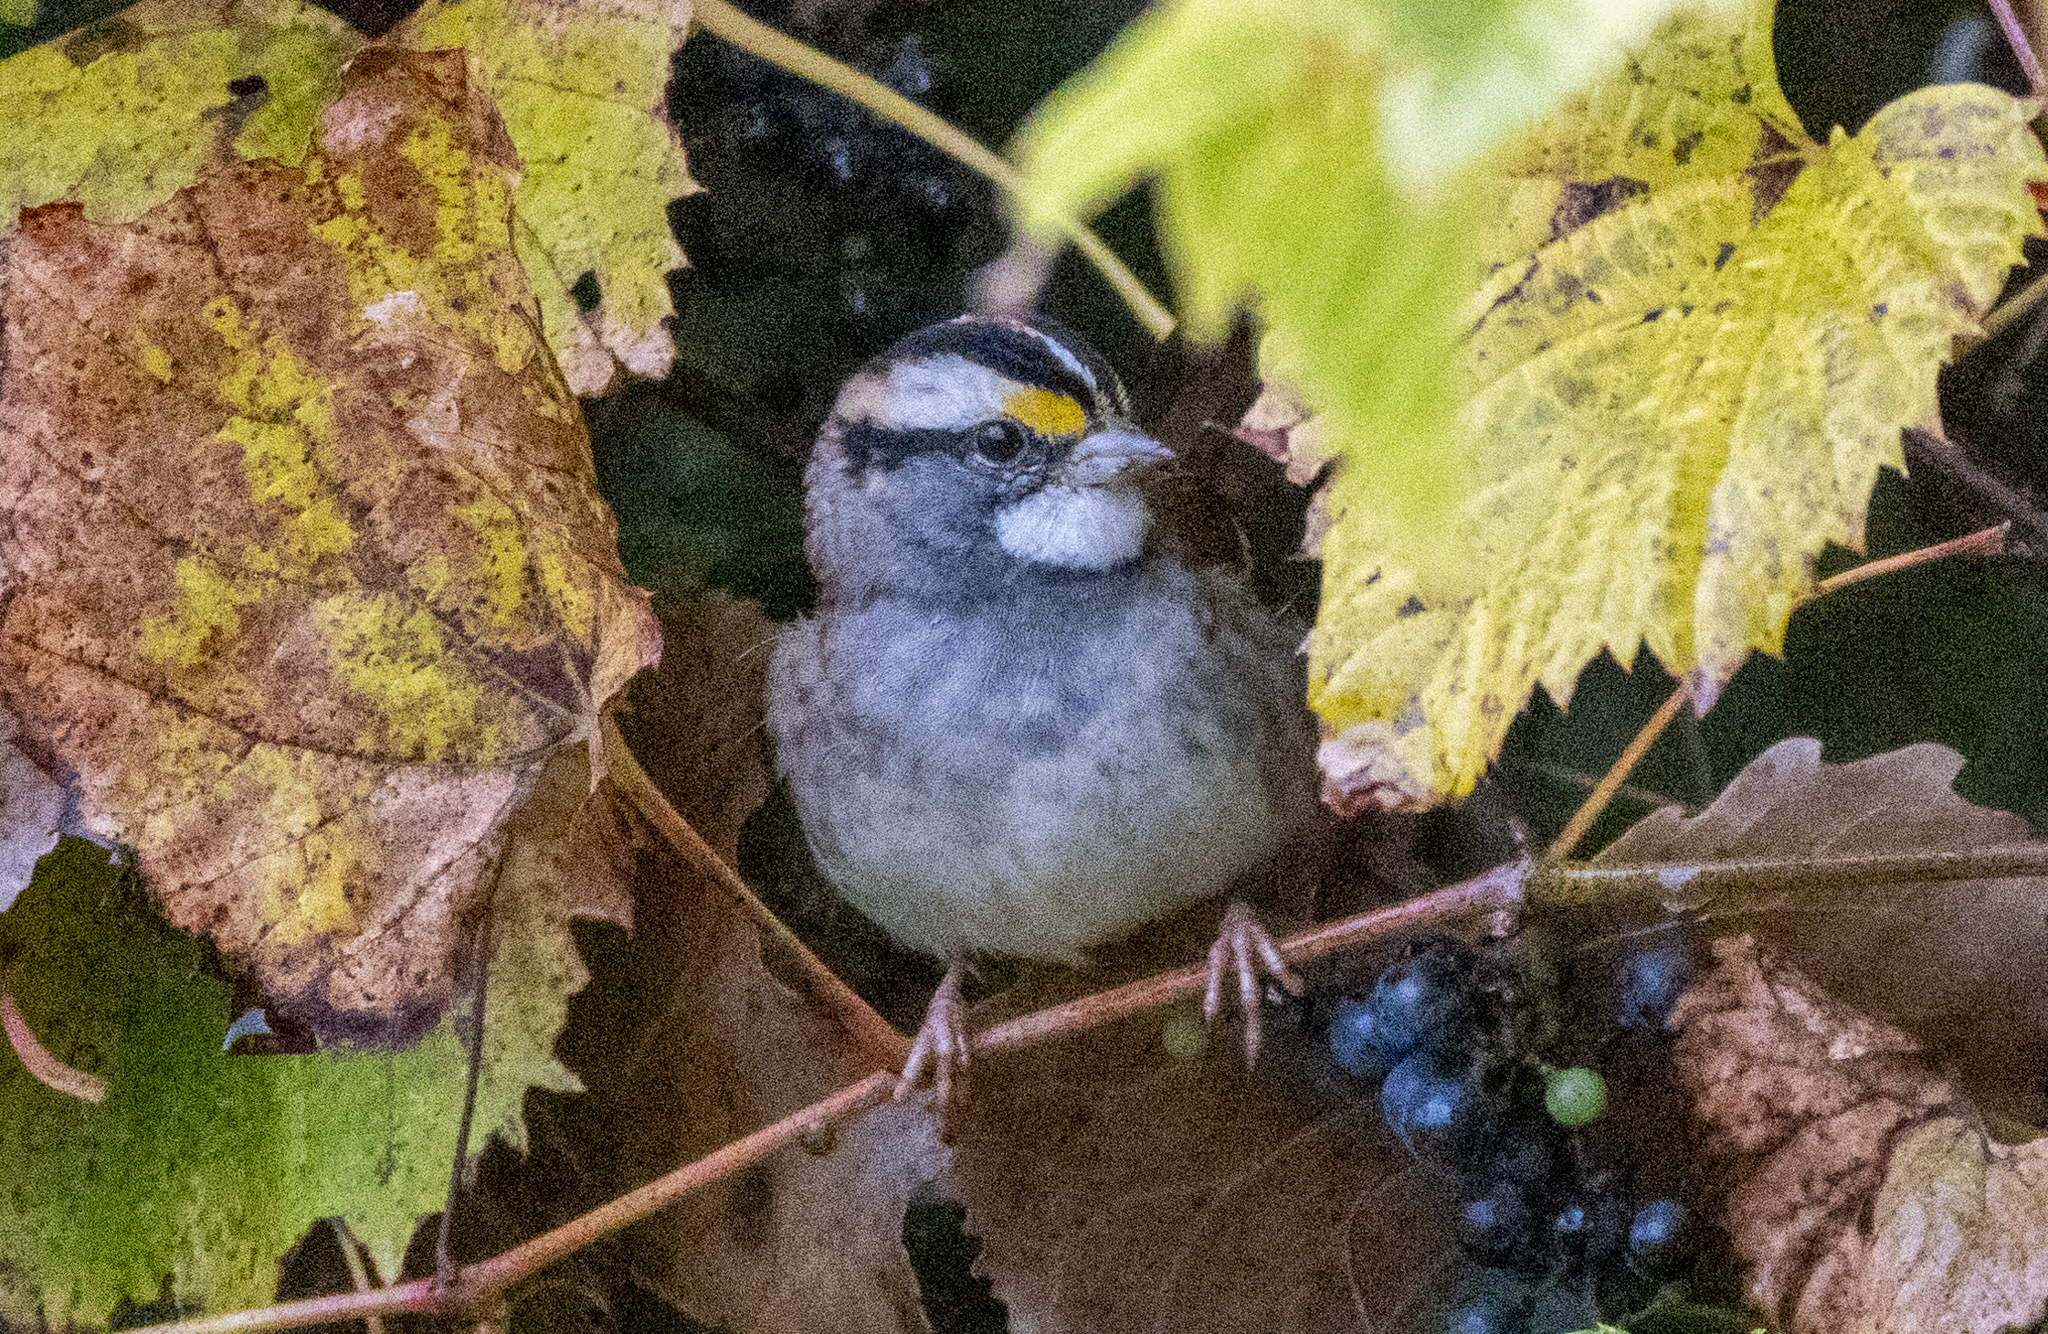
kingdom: Animalia
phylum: Chordata
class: Aves
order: Passeriformes
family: Passerellidae
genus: Zonotrichia
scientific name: Zonotrichia albicollis
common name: White-throated sparrow
